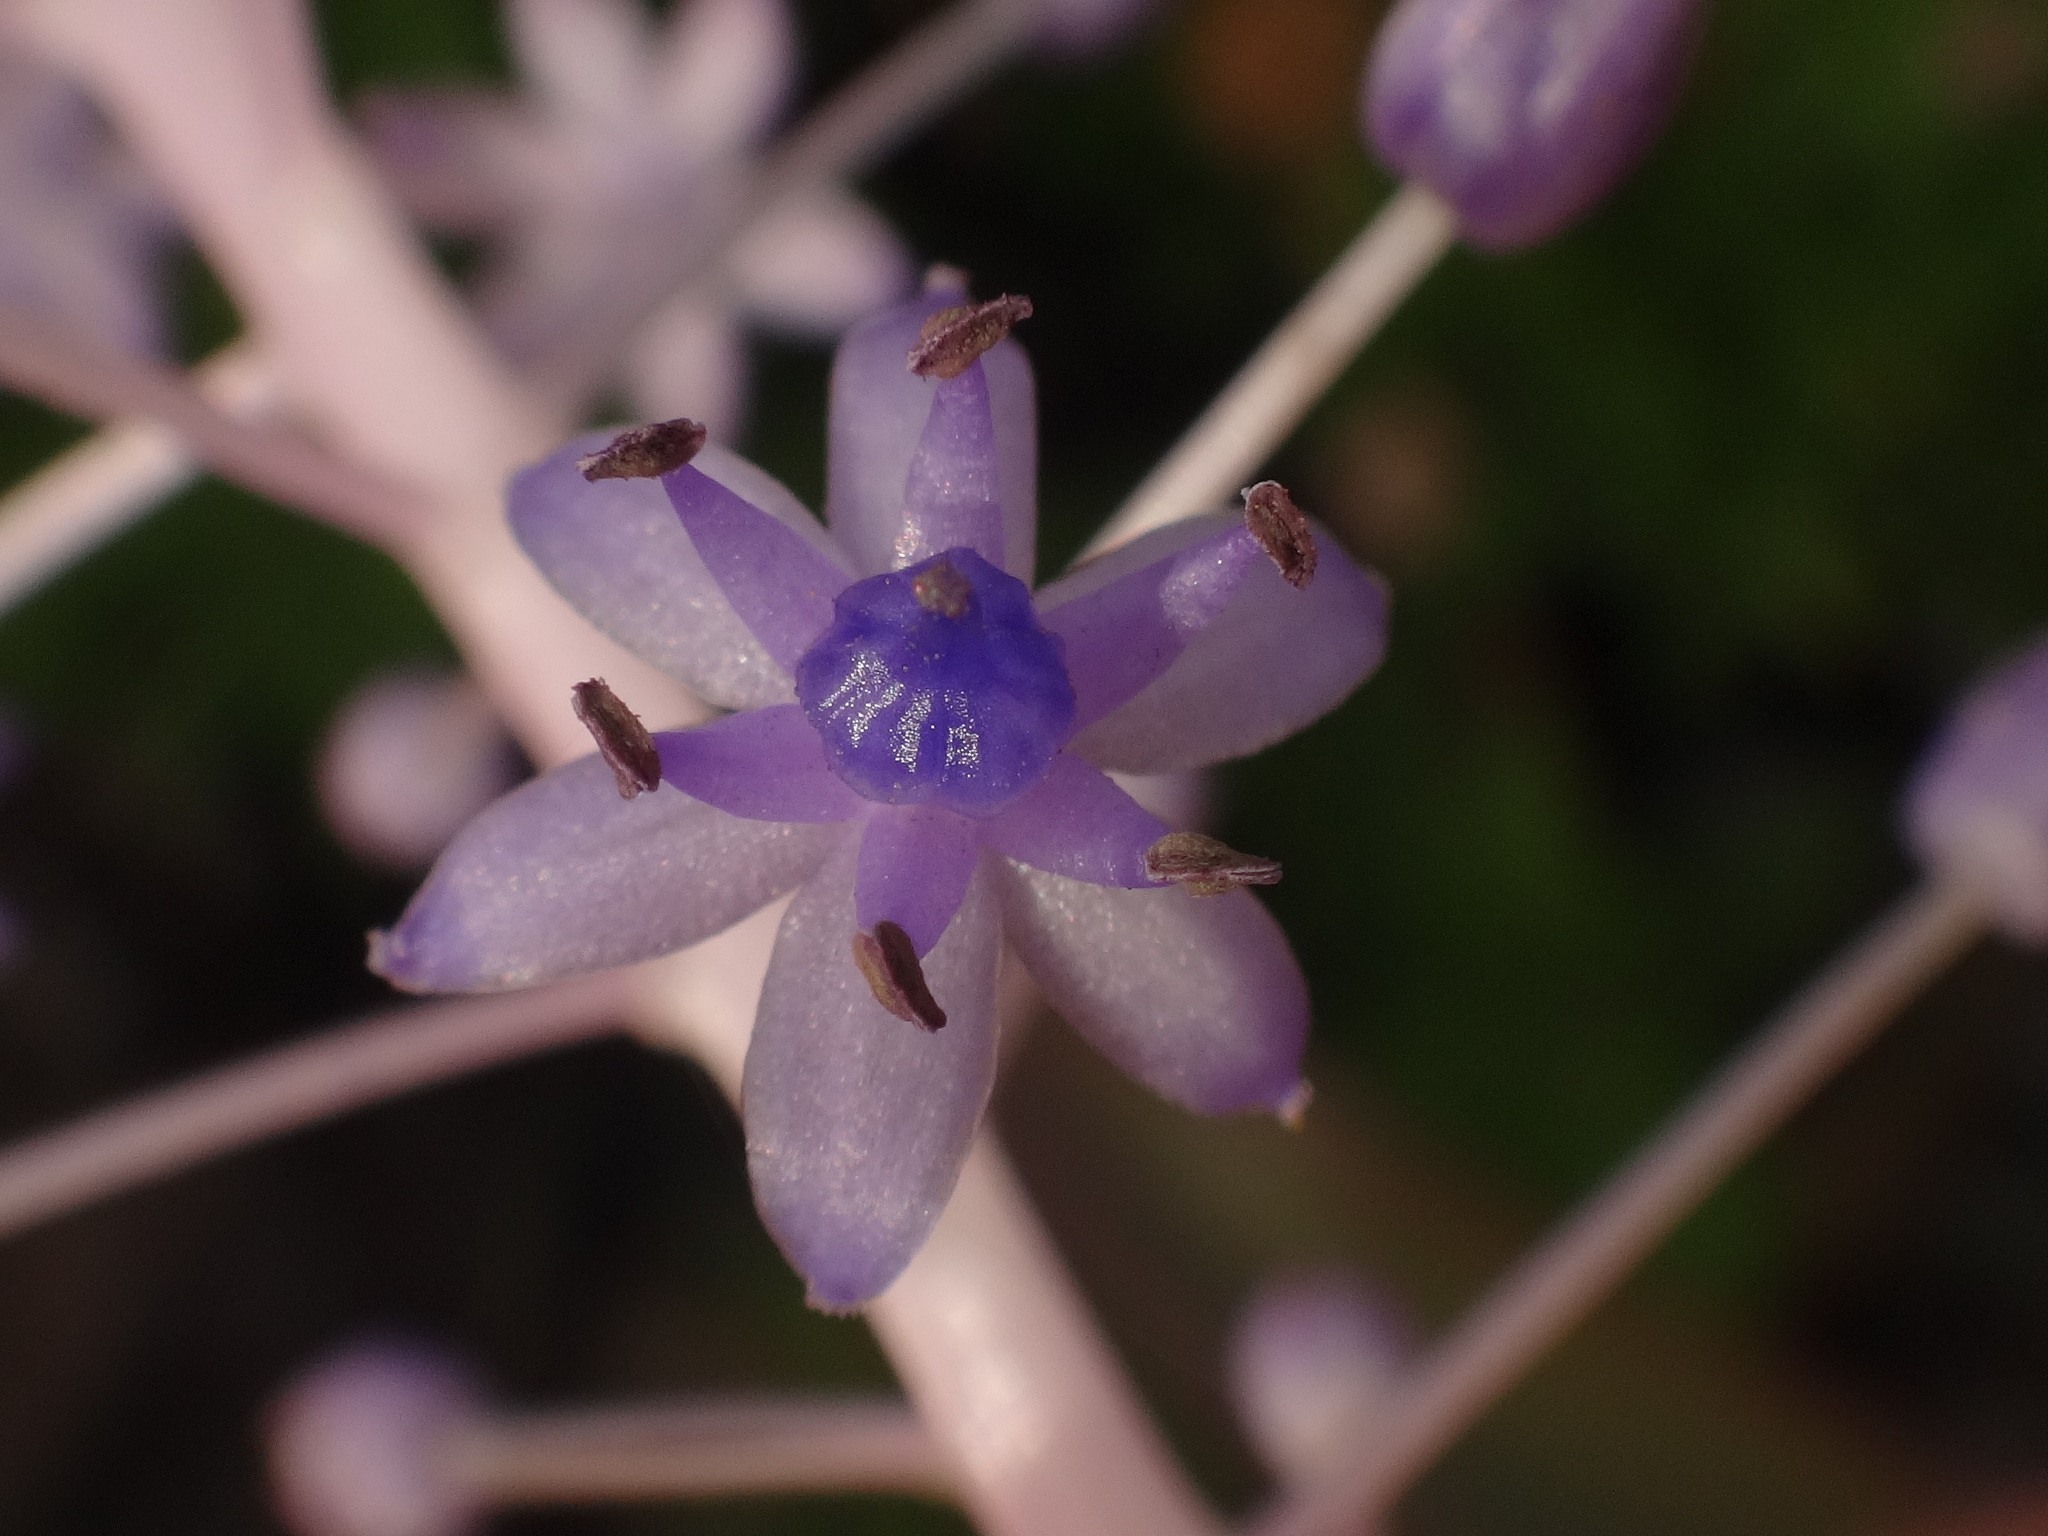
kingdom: Plantae
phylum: Tracheophyta
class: Liliopsida
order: Asparagales
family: Asparagaceae
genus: Scilla
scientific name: Scilla latifolia
